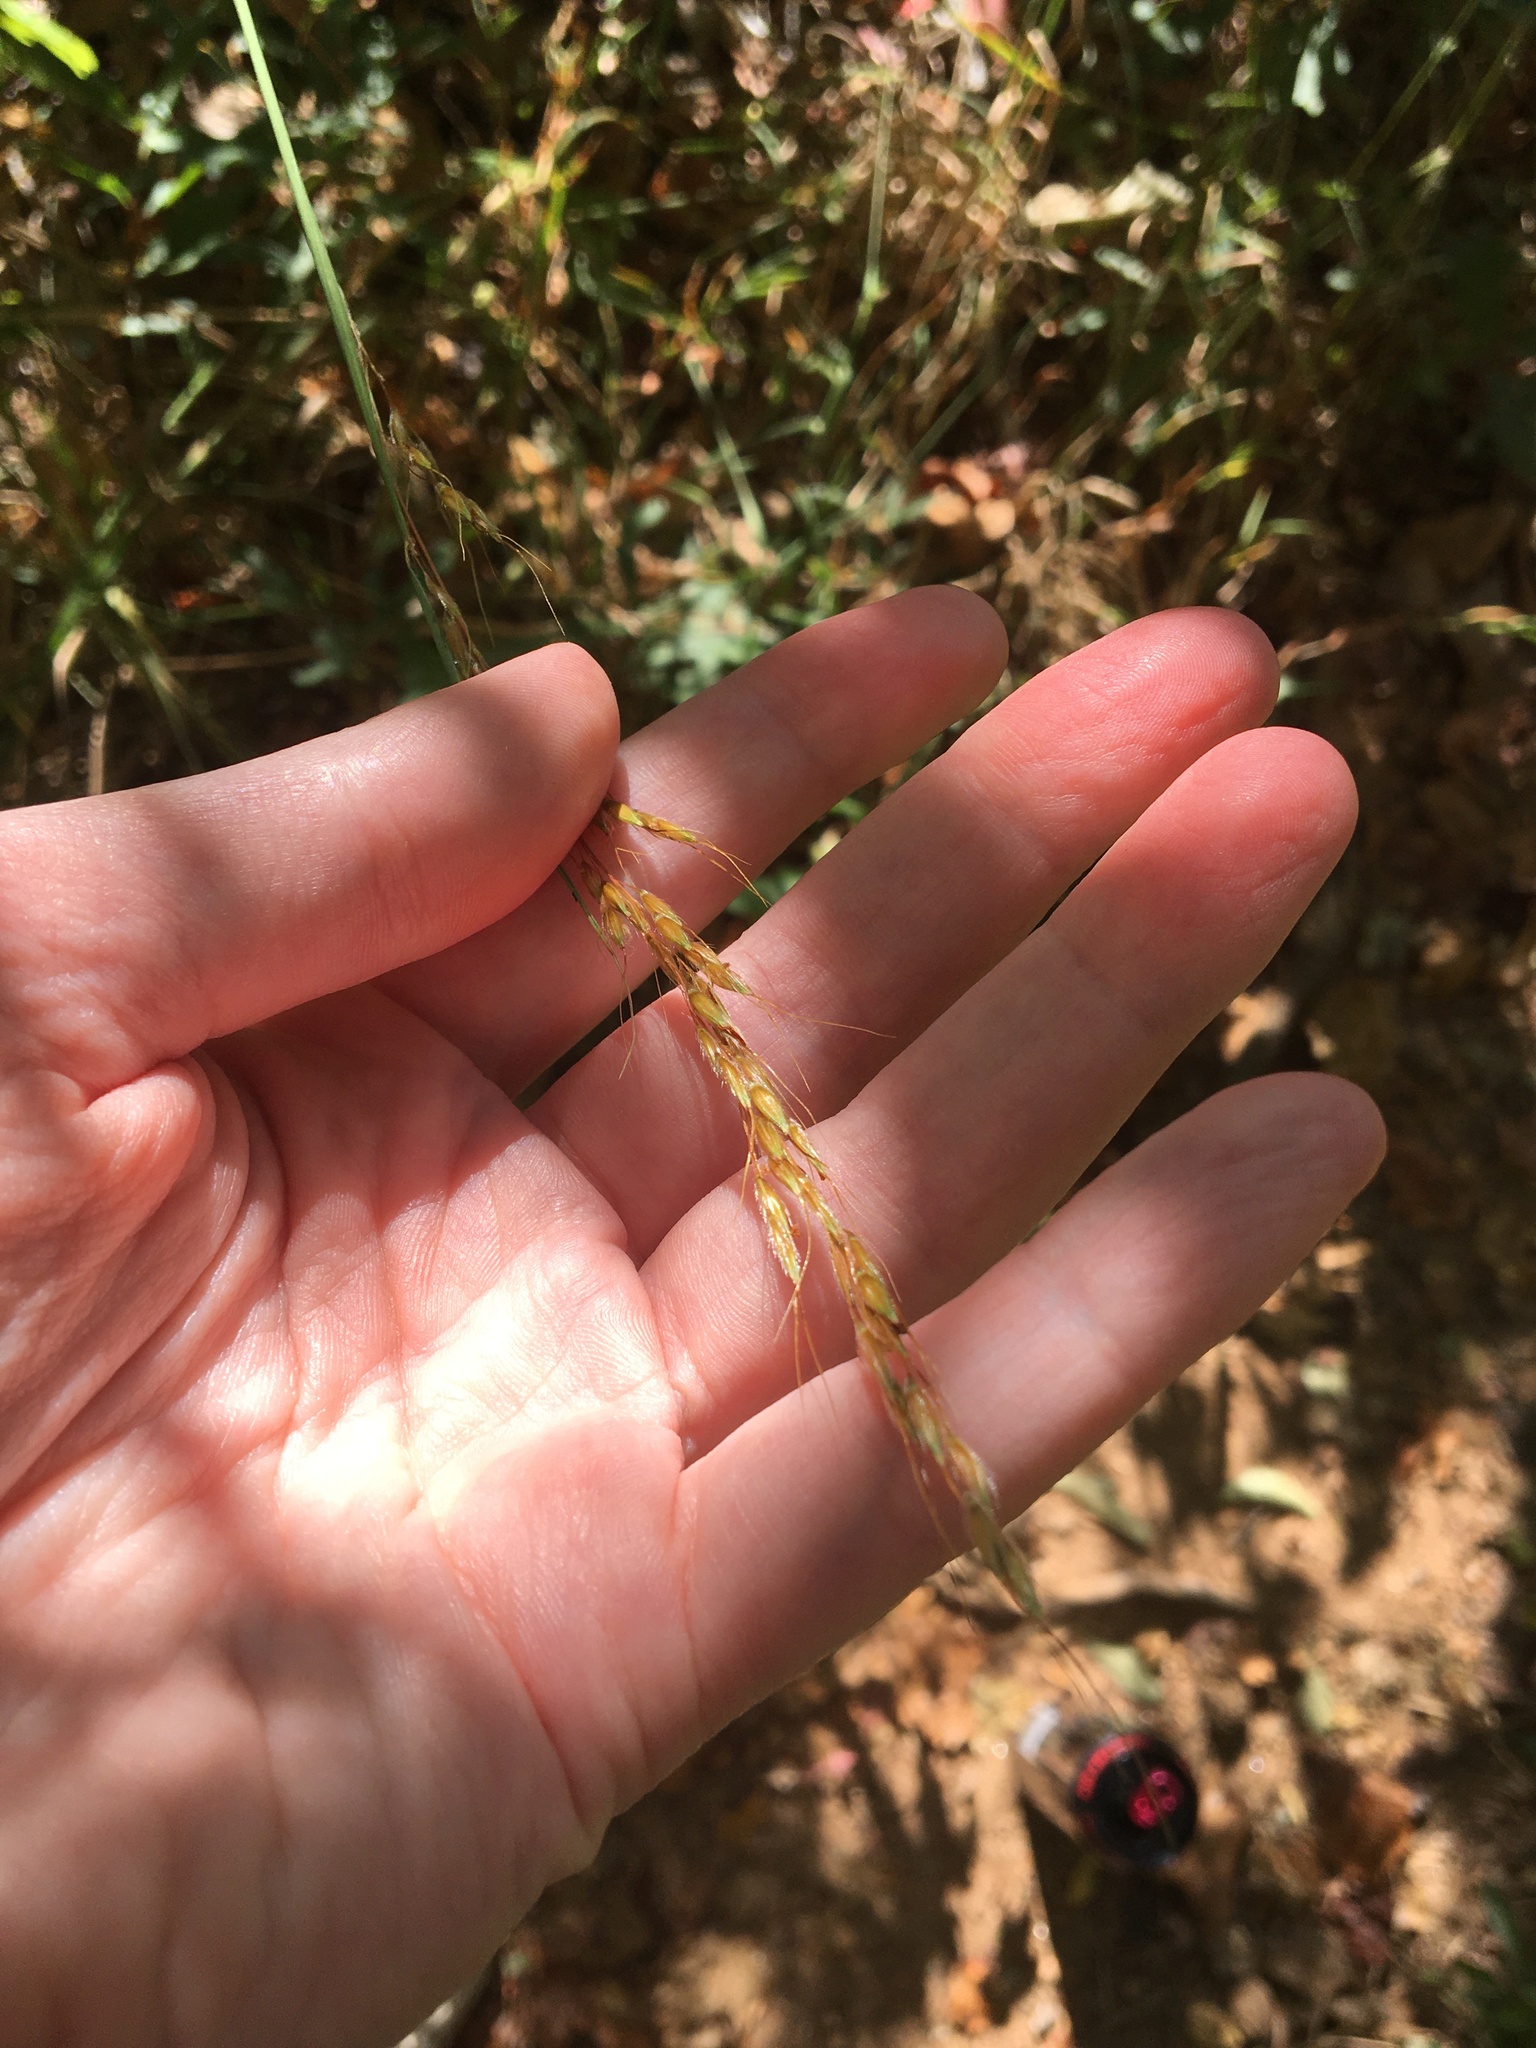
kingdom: Plantae
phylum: Tracheophyta
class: Liliopsida
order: Poales
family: Poaceae
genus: Sorghastrum
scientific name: Sorghastrum nutans
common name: Indian grass
